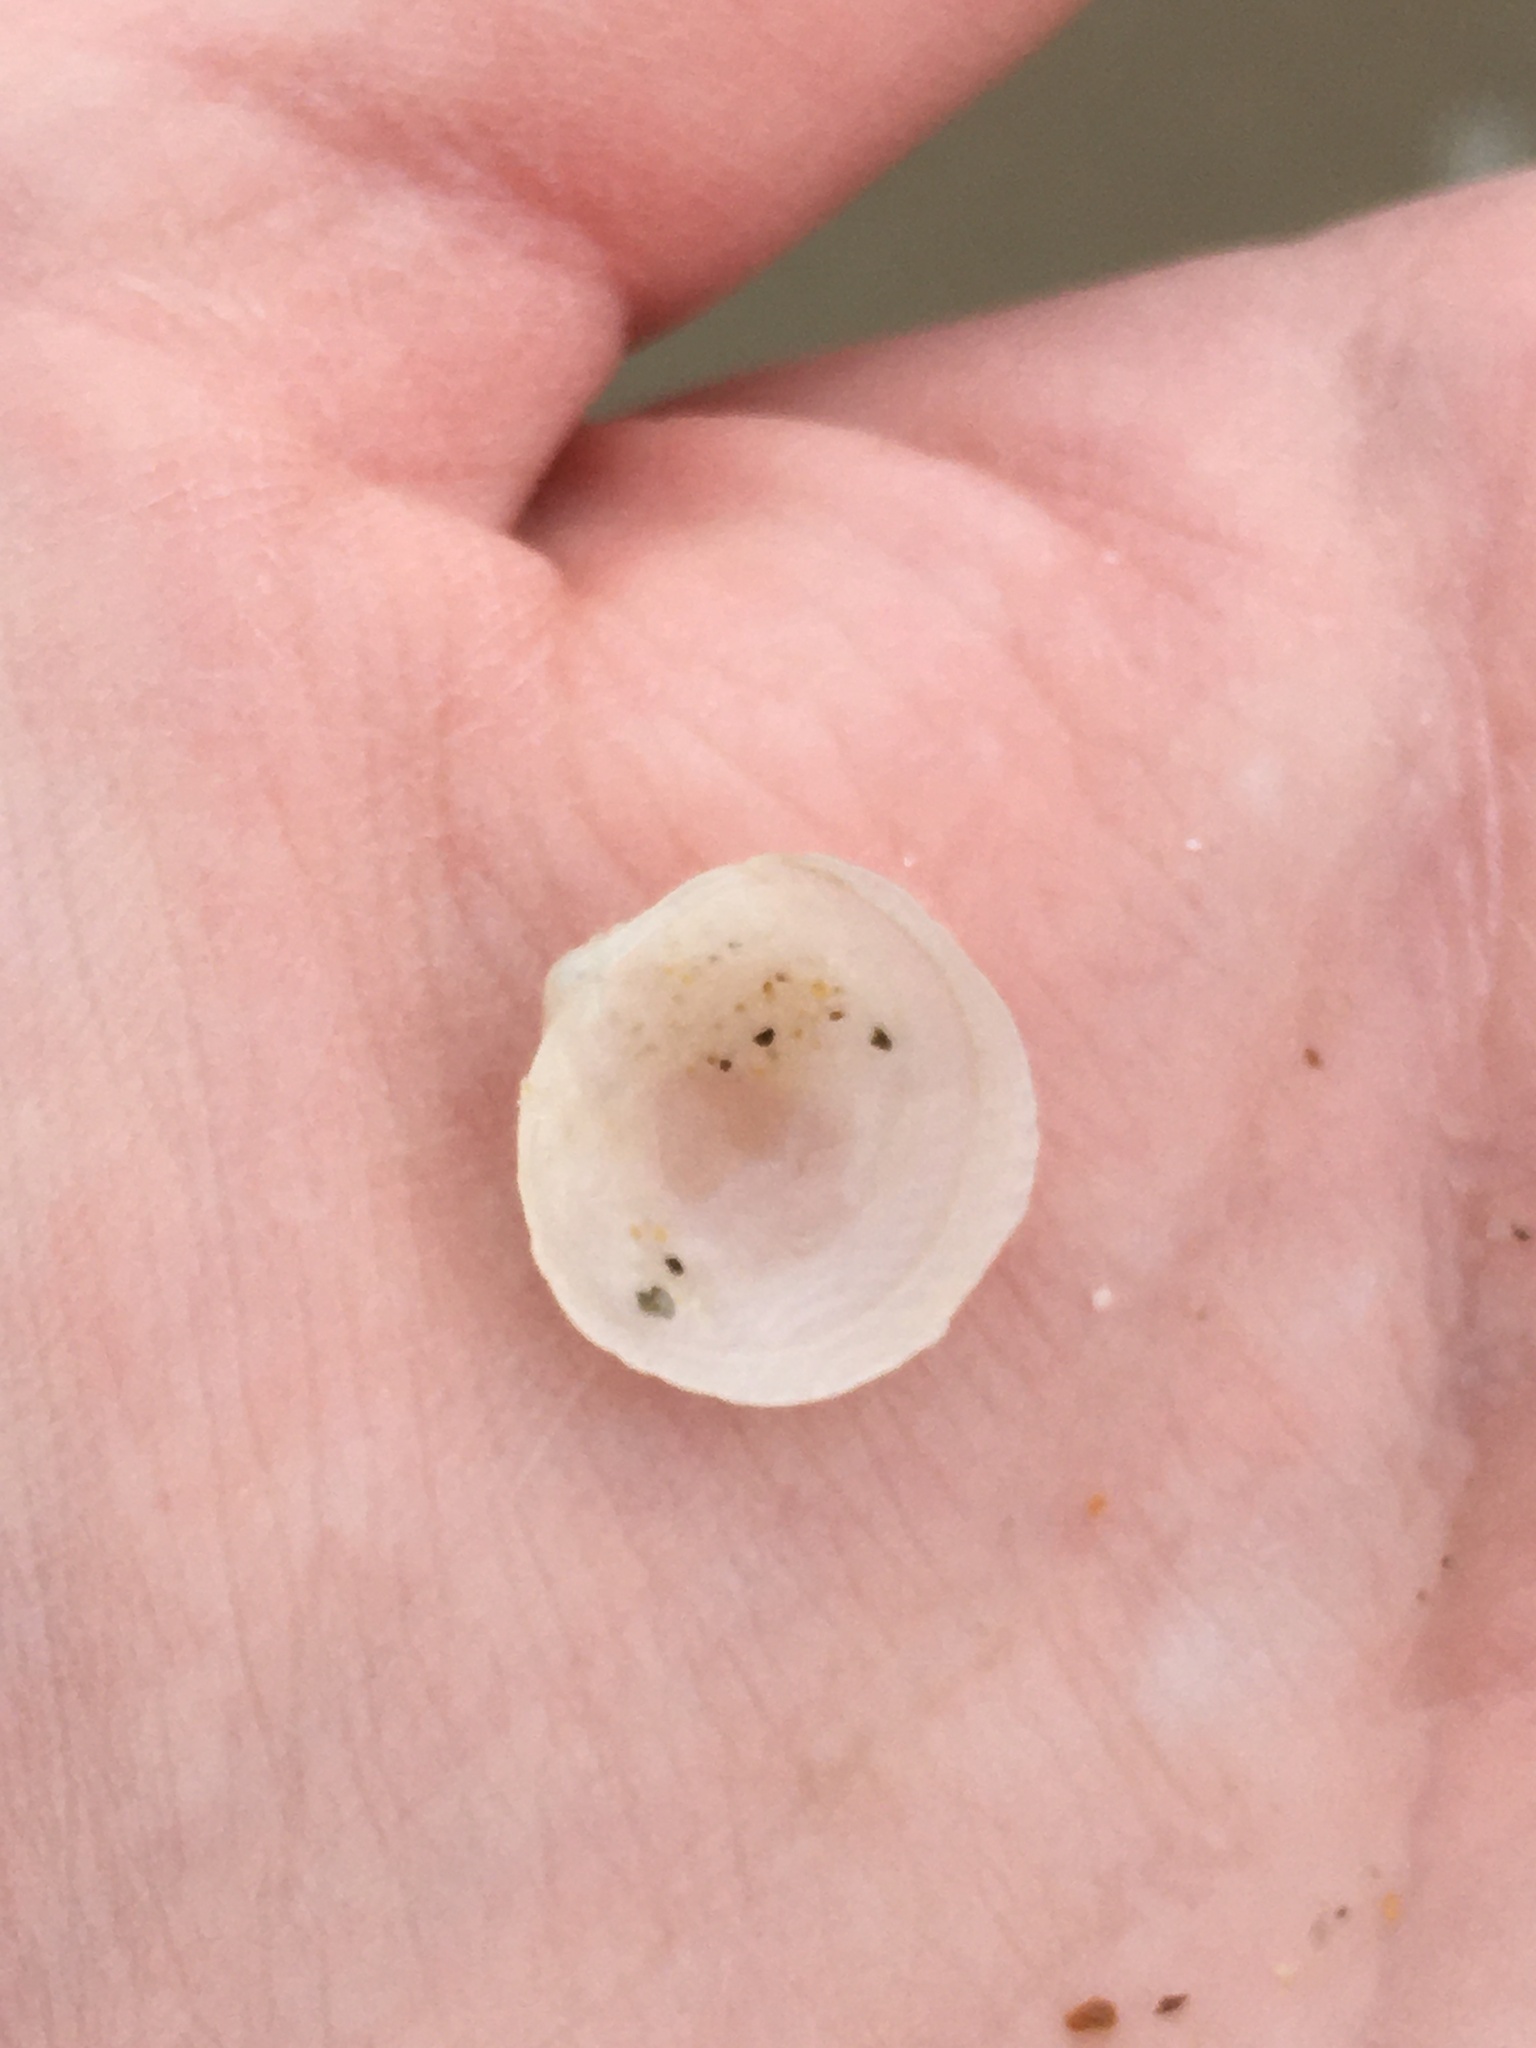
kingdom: Animalia
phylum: Mollusca
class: Bivalvia
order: Lucinida
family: Lucinidae
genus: Divalinga
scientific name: Divalinga quadrisulcata
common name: Cross-hatched lucine
